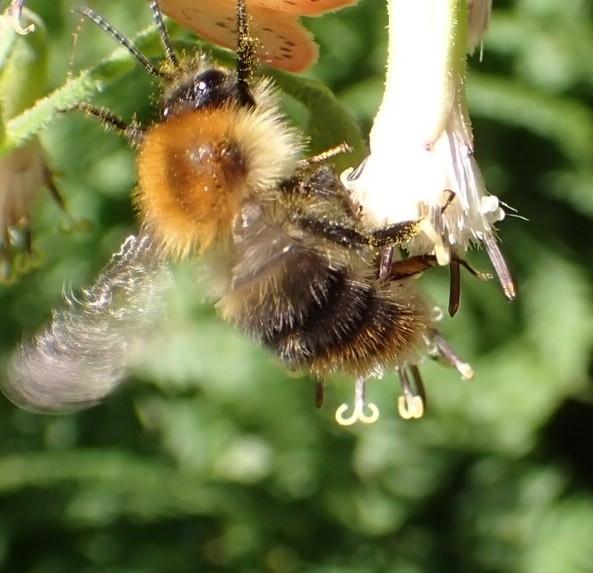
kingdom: Animalia
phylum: Arthropoda
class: Insecta
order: Hymenoptera
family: Apidae
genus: Bombus
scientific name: Bombus pascuorum
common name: Common carder bee
